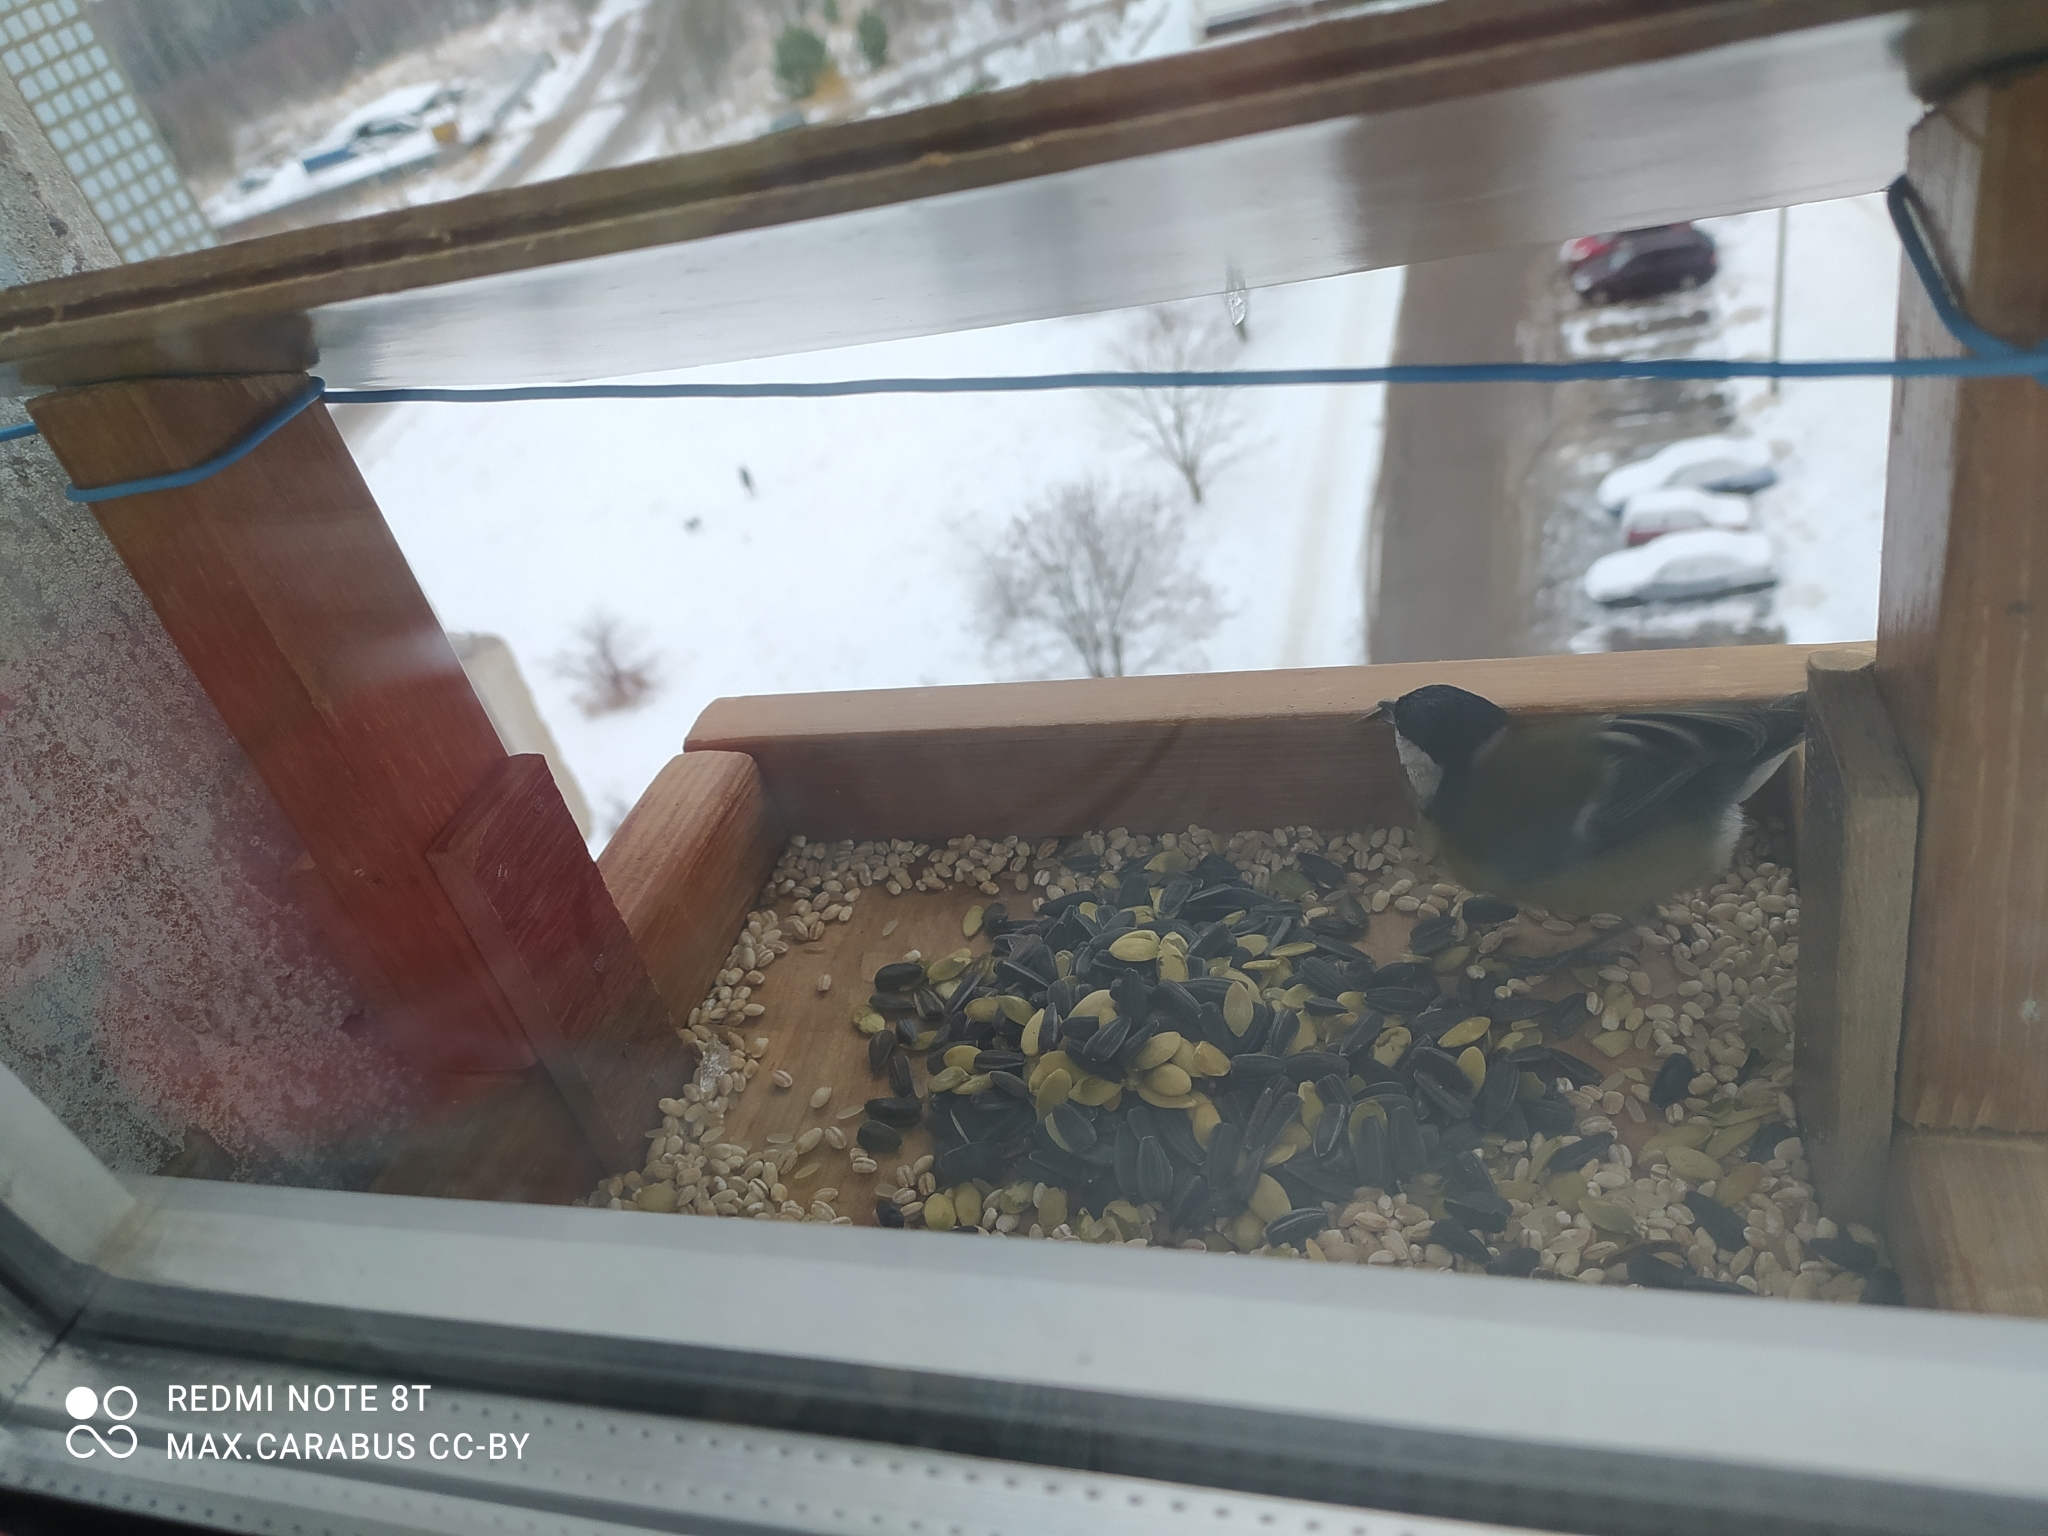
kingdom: Animalia
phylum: Chordata
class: Aves
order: Passeriformes
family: Paridae
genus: Parus
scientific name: Parus major
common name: Great tit
